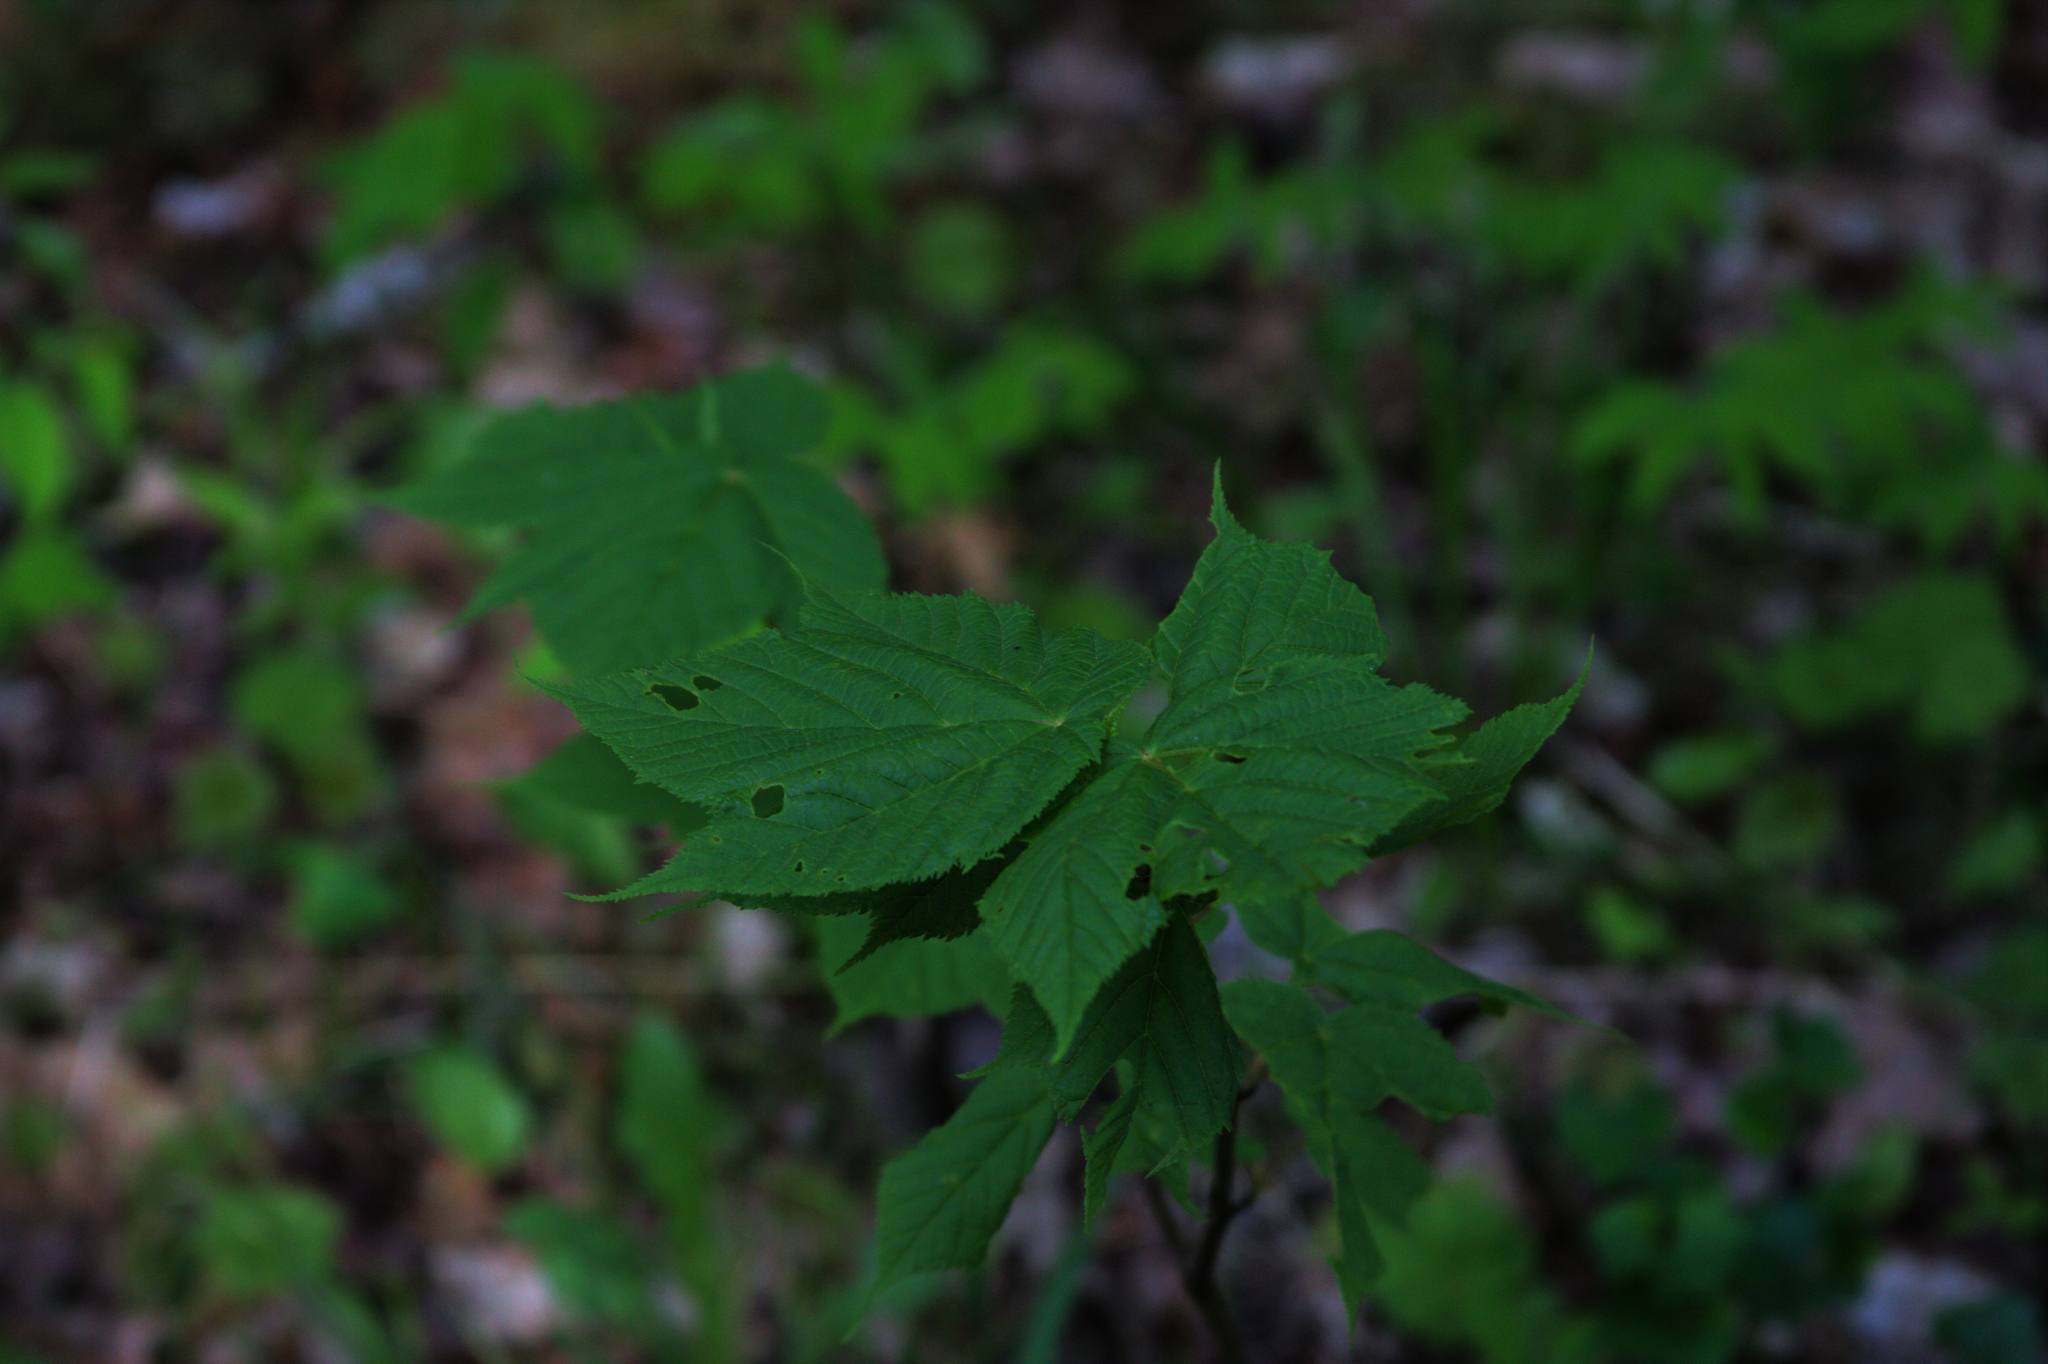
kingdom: Plantae
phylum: Tracheophyta
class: Magnoliopsida
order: Sapindales
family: Sapindaceae
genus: Acer
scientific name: Acer pensylvanicum
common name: Moosewood
